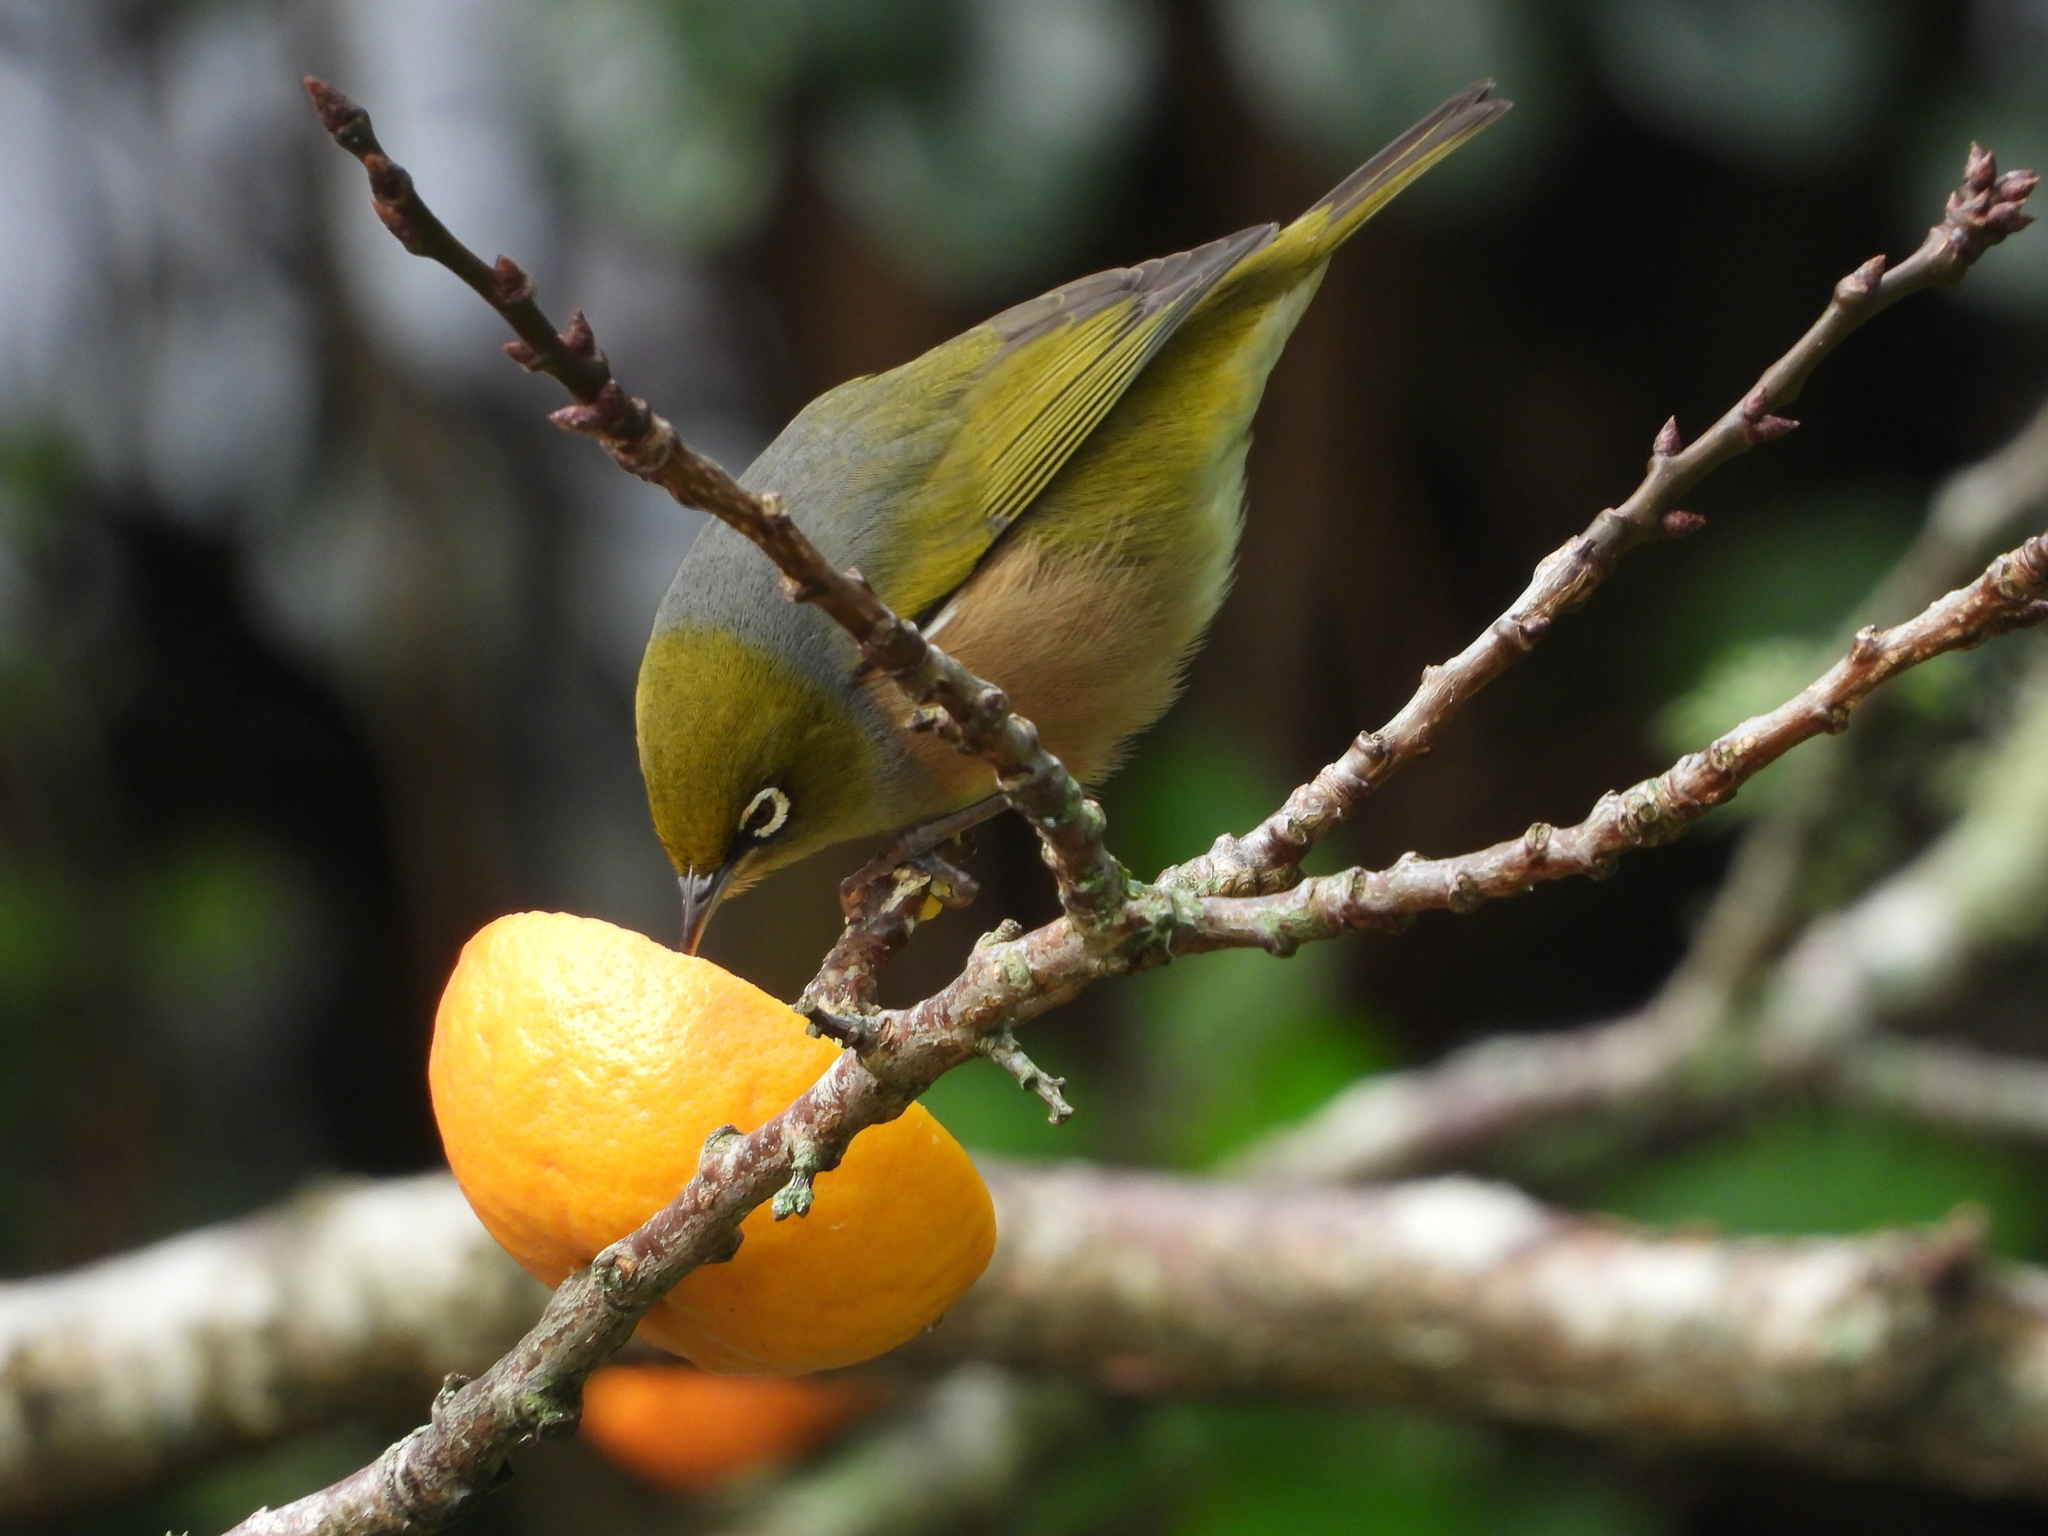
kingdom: Animalia
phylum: Chordata
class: Aves
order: Passeriformes
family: Zosteropidae
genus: Zosterops
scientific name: Zosterops lateralis
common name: Silvereye
